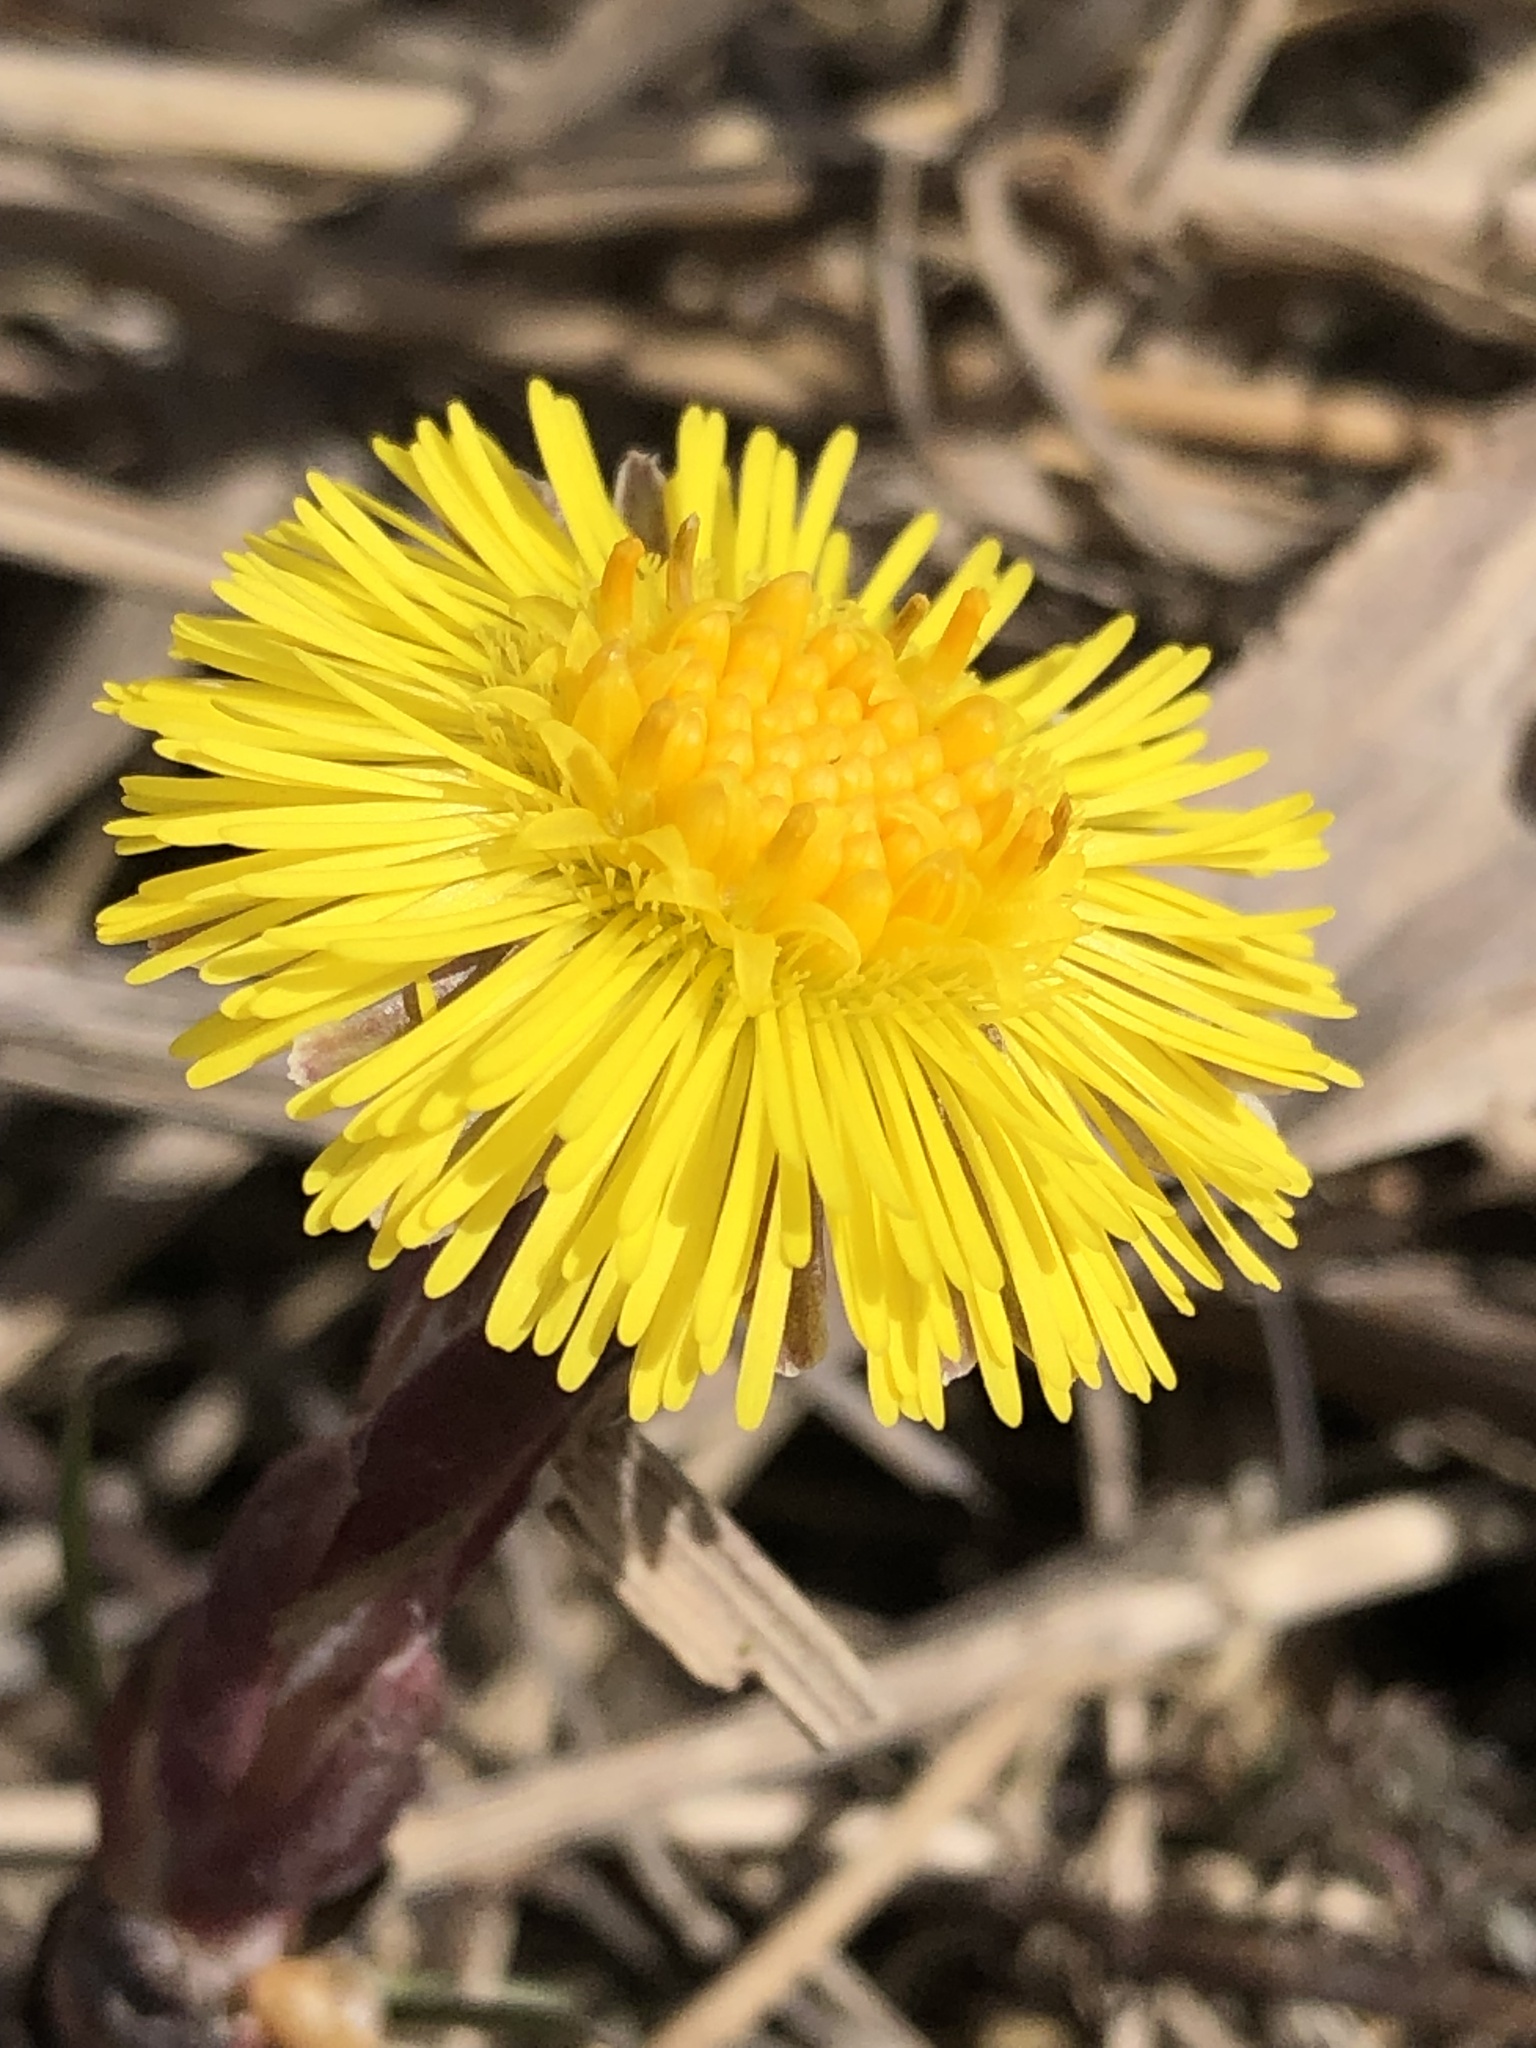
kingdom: Plantae
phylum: Tracheophyta
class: Magnoliopsida
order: Asterales
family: Asteraceae
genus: Tussilago
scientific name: Tussilago farfara
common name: Coltsfoot
